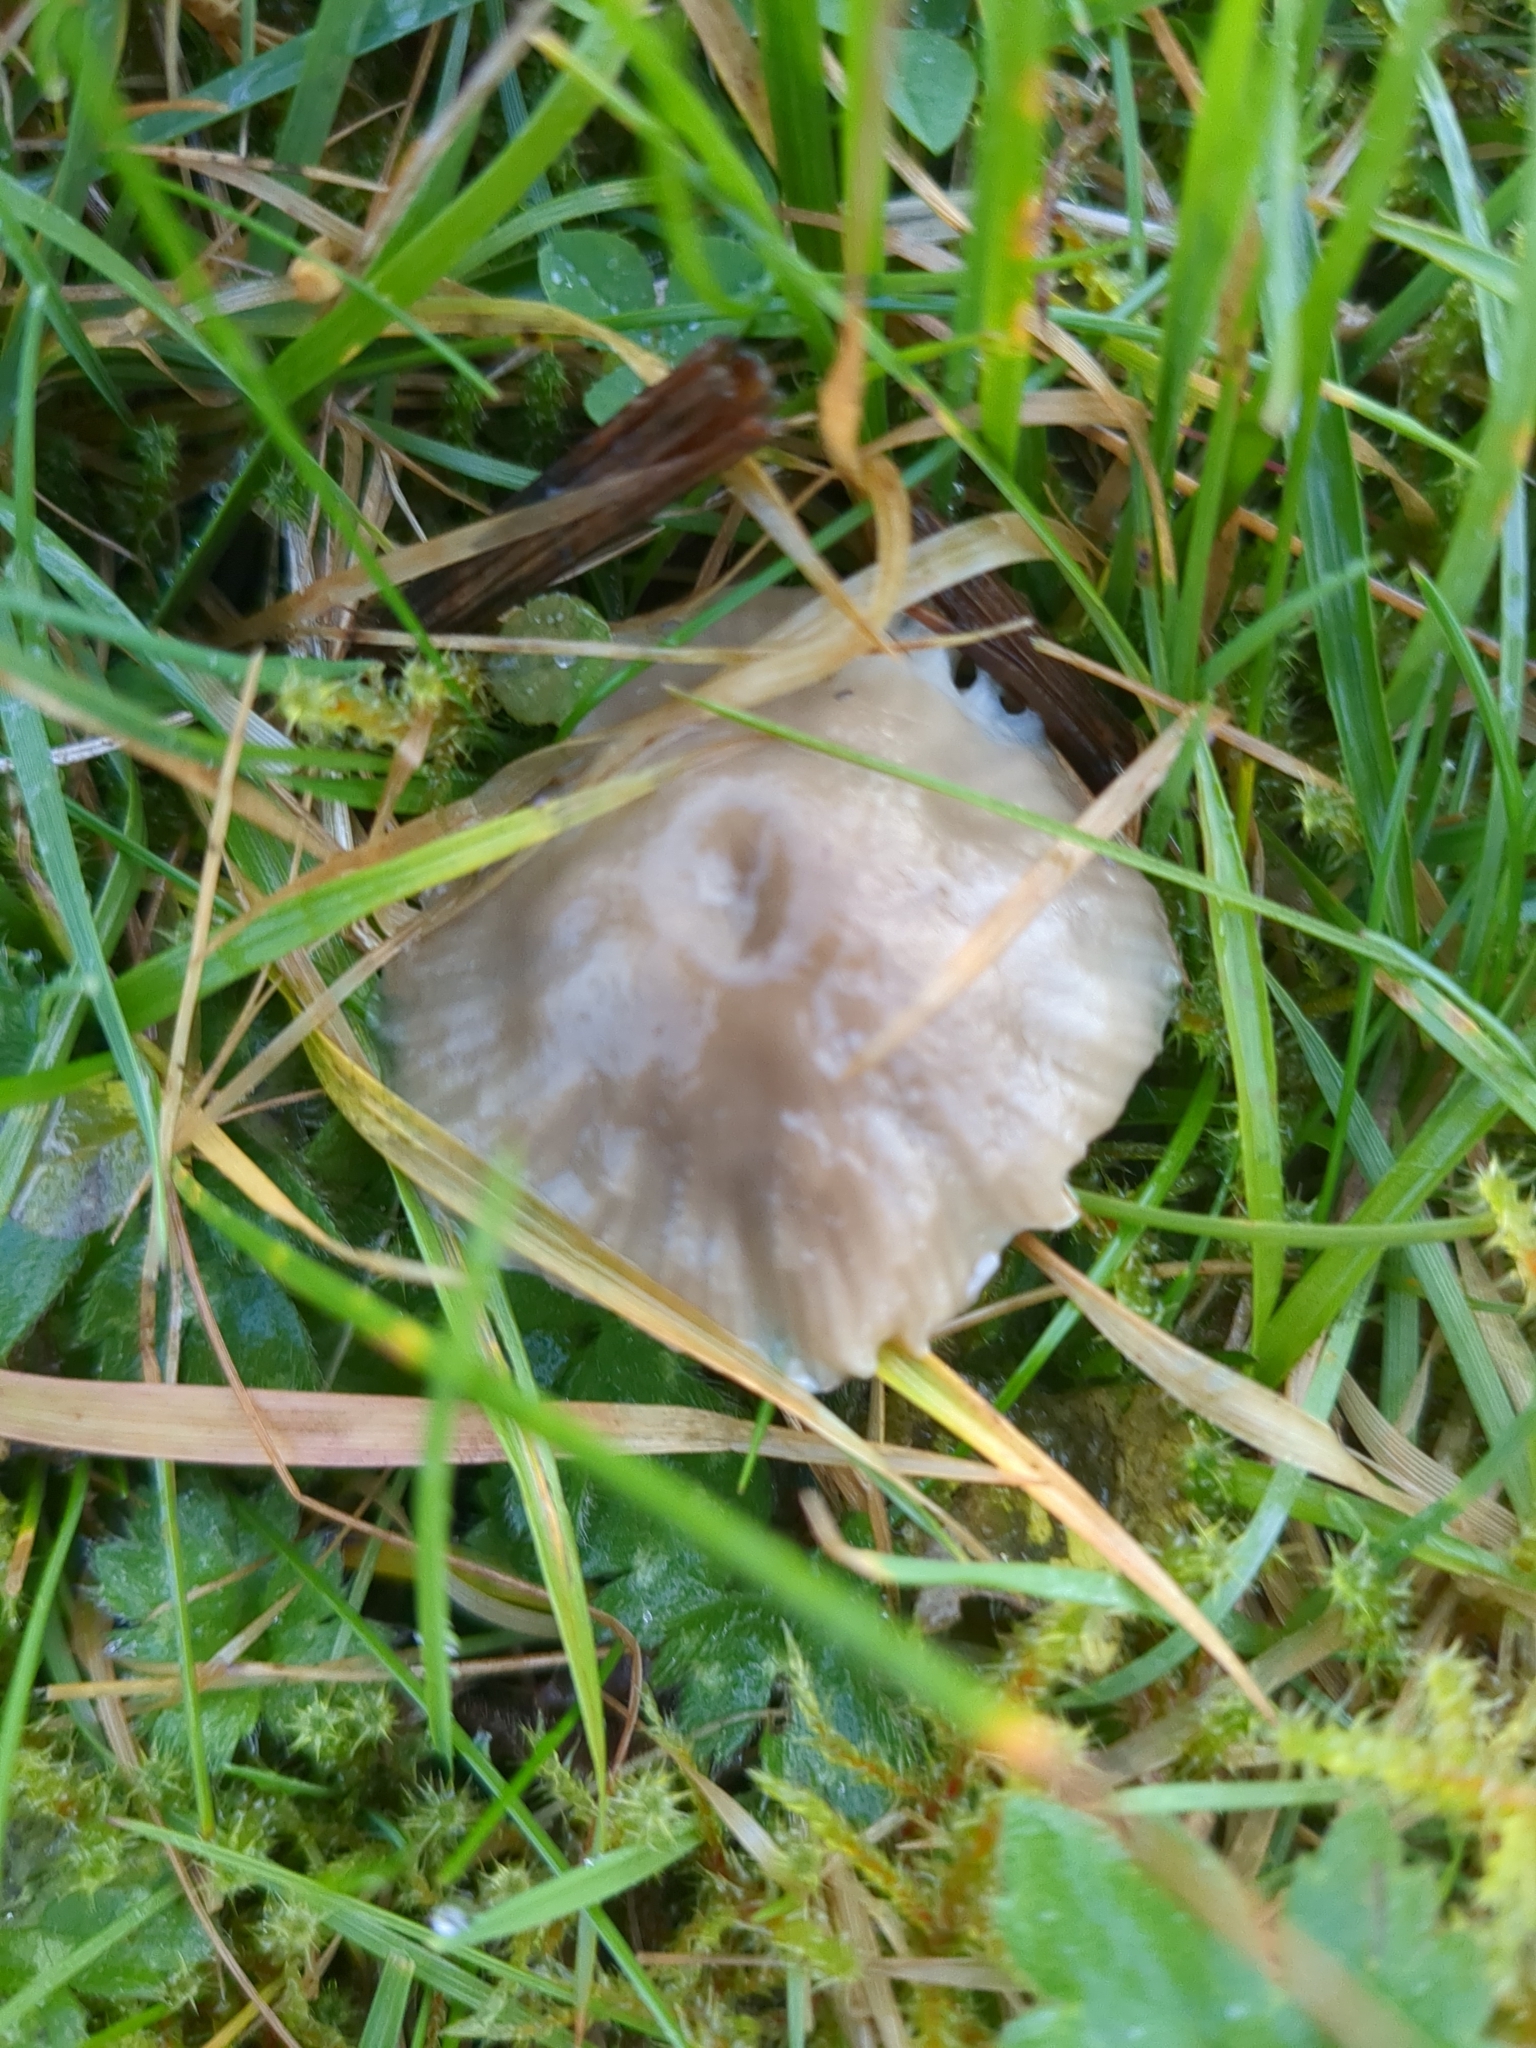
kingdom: Fungi
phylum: Basidiomycota
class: Agaricomycetes
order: Agaricales
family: Hygrophoraceae
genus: Gliophorus
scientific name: Gliophorus irrigatus
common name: Slimy waxcap
